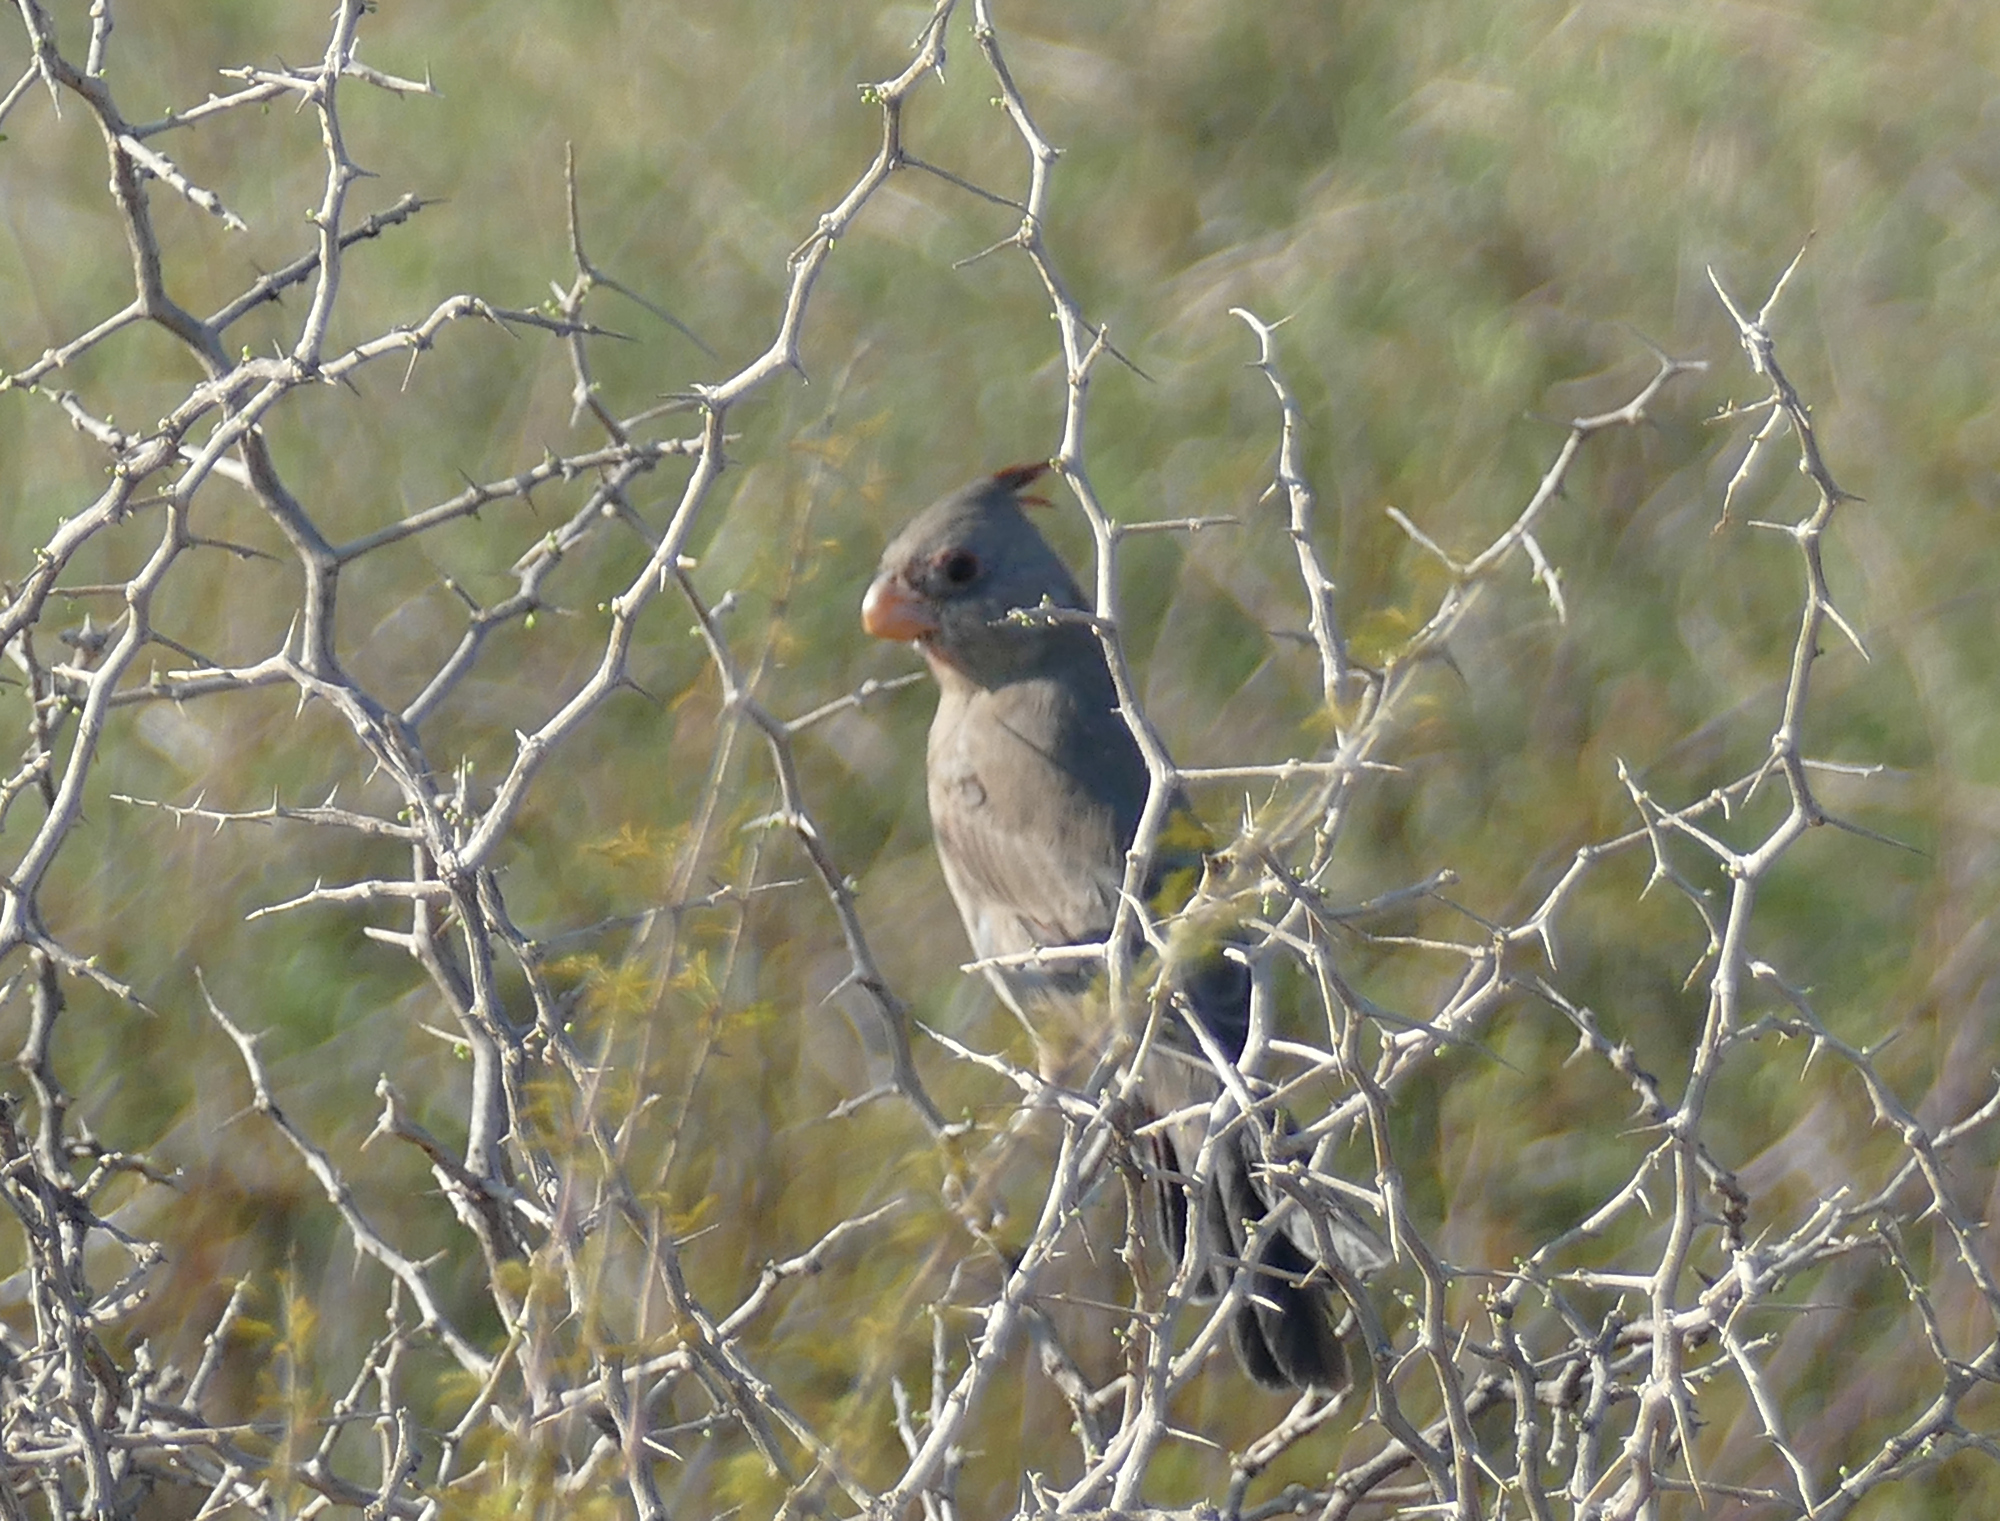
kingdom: Animalia
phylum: Chordata
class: Aves
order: Passeriformes
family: Cardinalidae
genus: Cardinalis
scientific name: Cardinalis sinuatus
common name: Pyrrhuloxia
